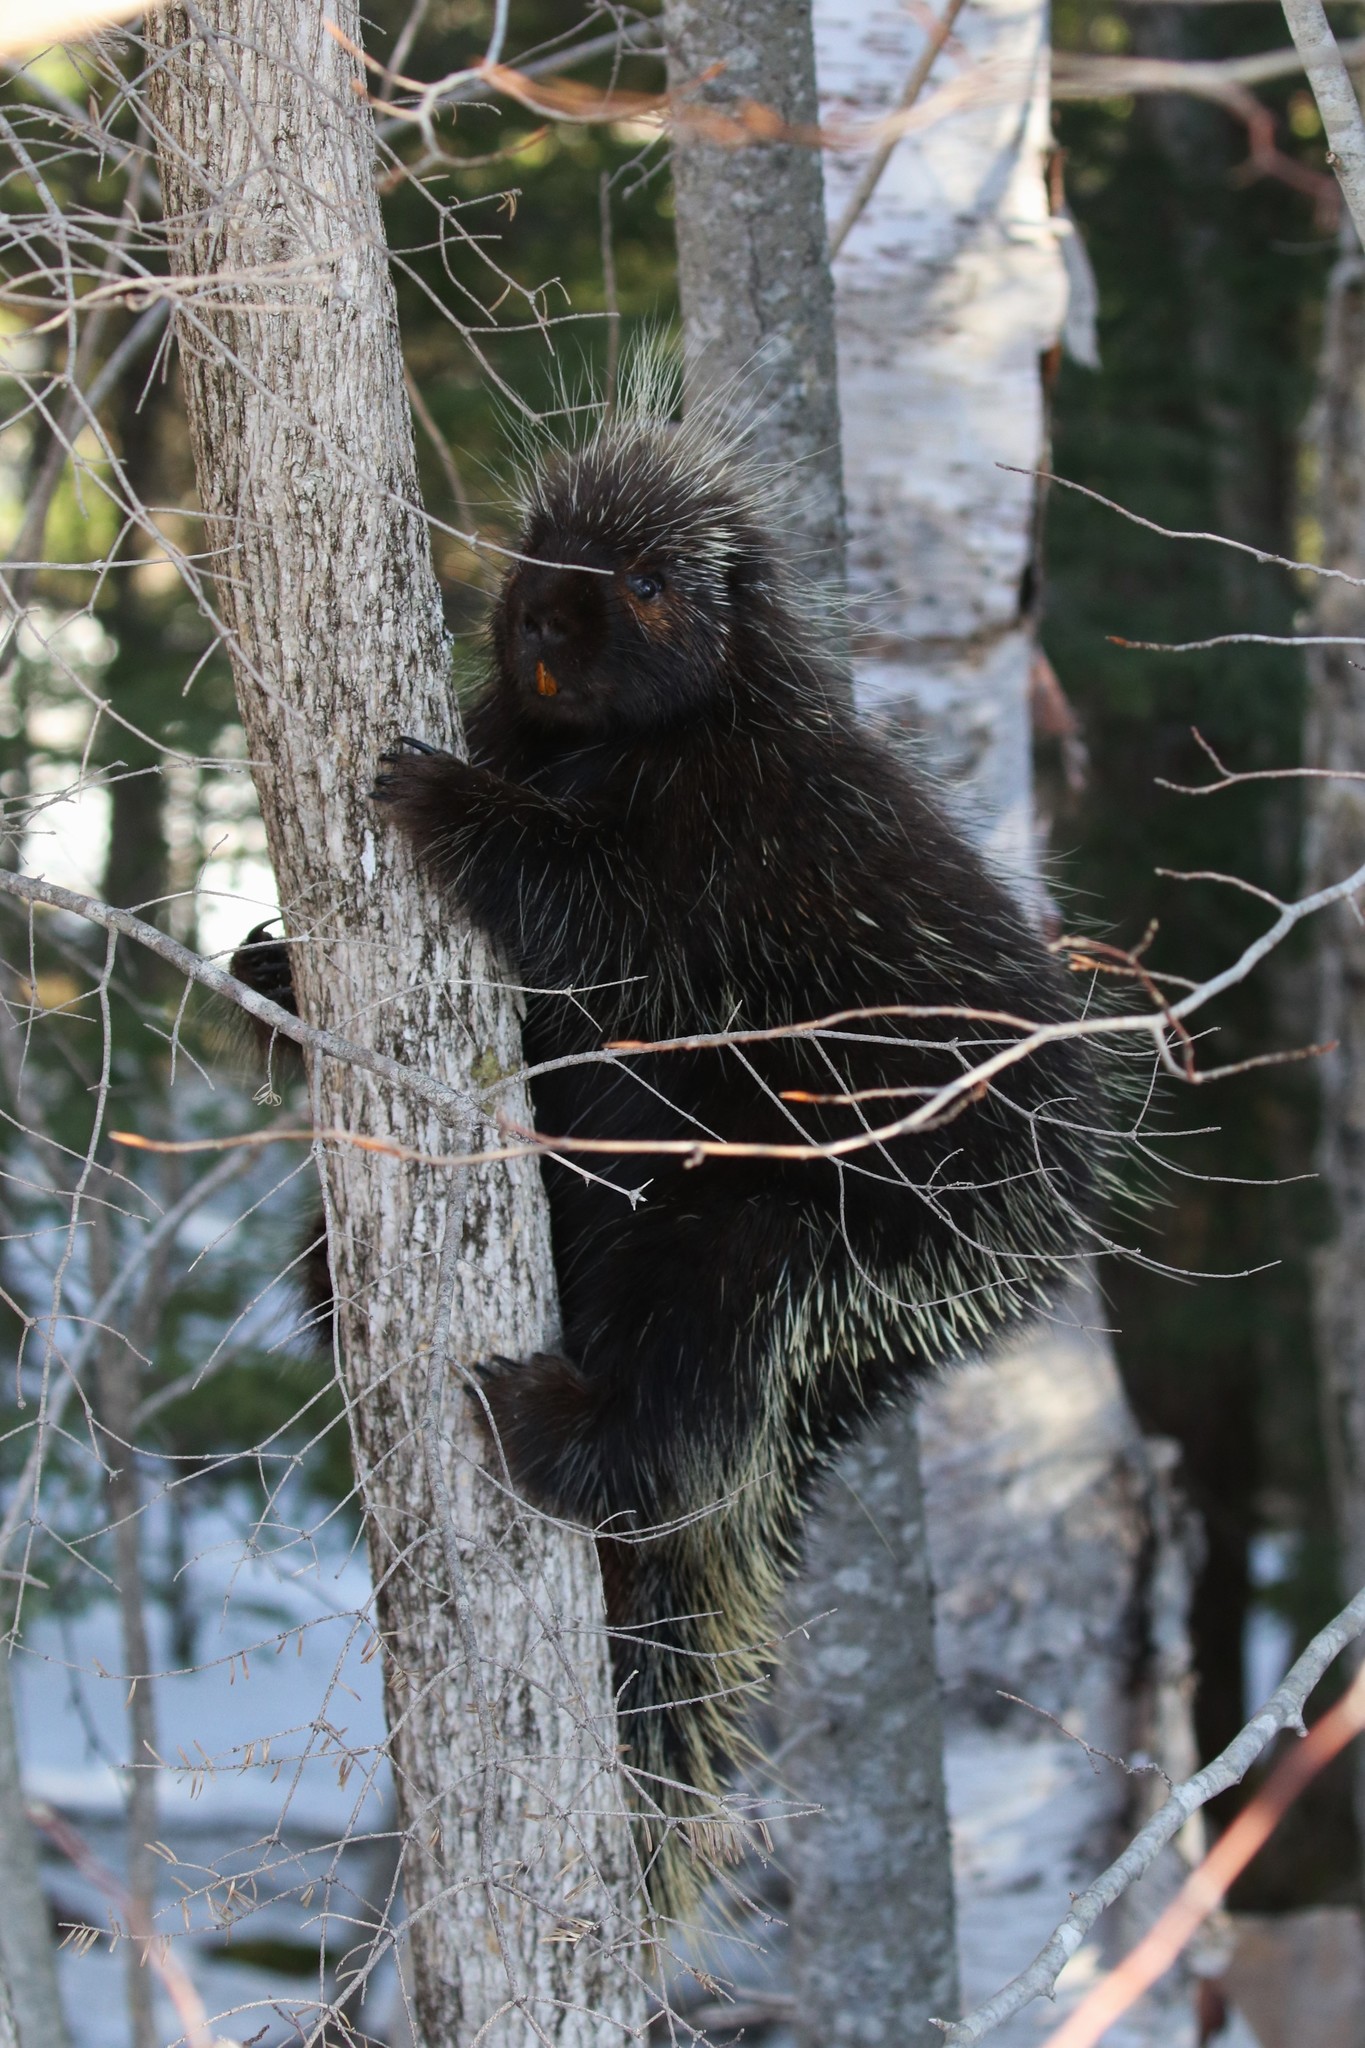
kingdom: Animalia
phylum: Chordata
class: Mammalia
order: Rodentia
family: Erethizontidae
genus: Erethizon
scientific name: Erethizon dorsatus
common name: North american porcupine
